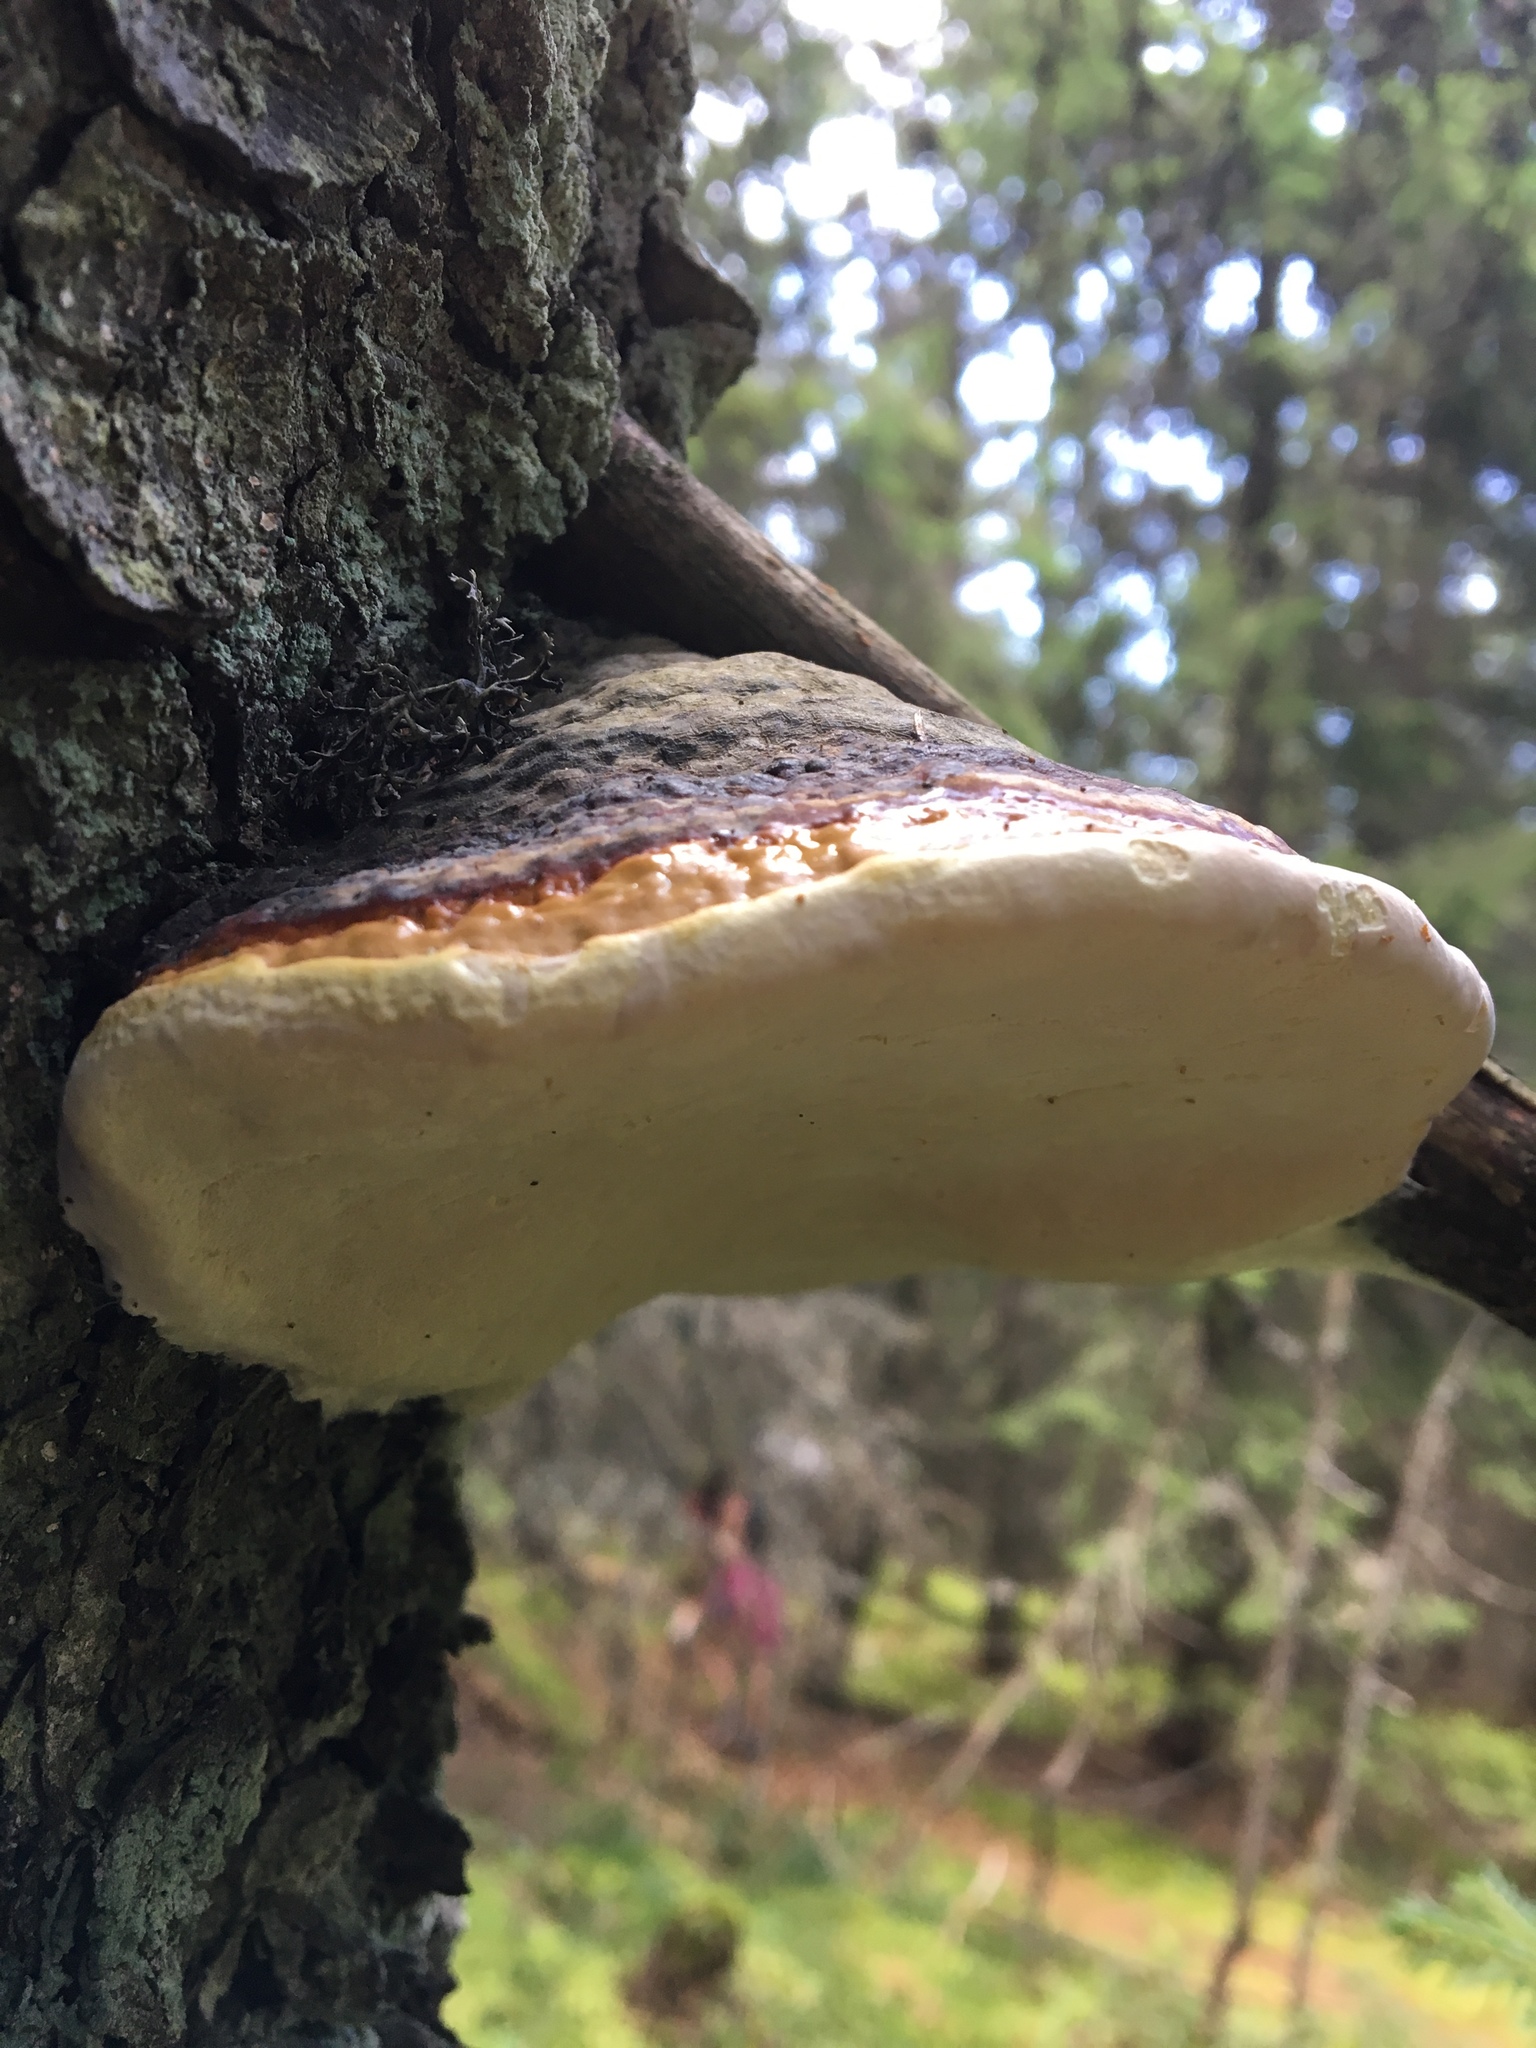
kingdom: Fungi
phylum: Basidiomycota
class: Agaricomycetes
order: Polyporales
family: Fomitopsidaceae
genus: Fomitopsis
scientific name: Fomitopsis pinicola
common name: Red-belted bracket
